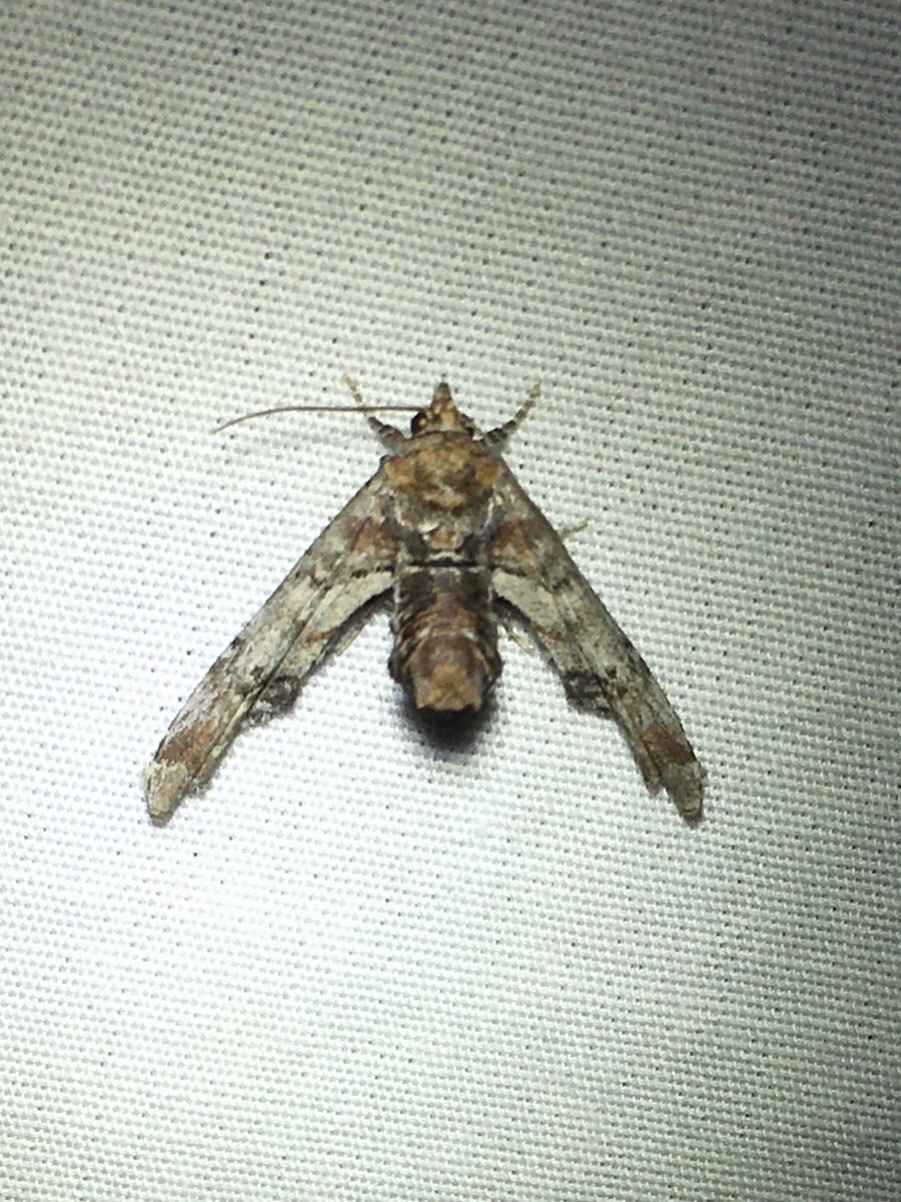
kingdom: Animalia
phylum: Arthropoda
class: Insecta
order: Lepidoptera
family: Euteliidae
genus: Marathyssa
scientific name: Marathyssa inficita
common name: Dark marathyssa moth
